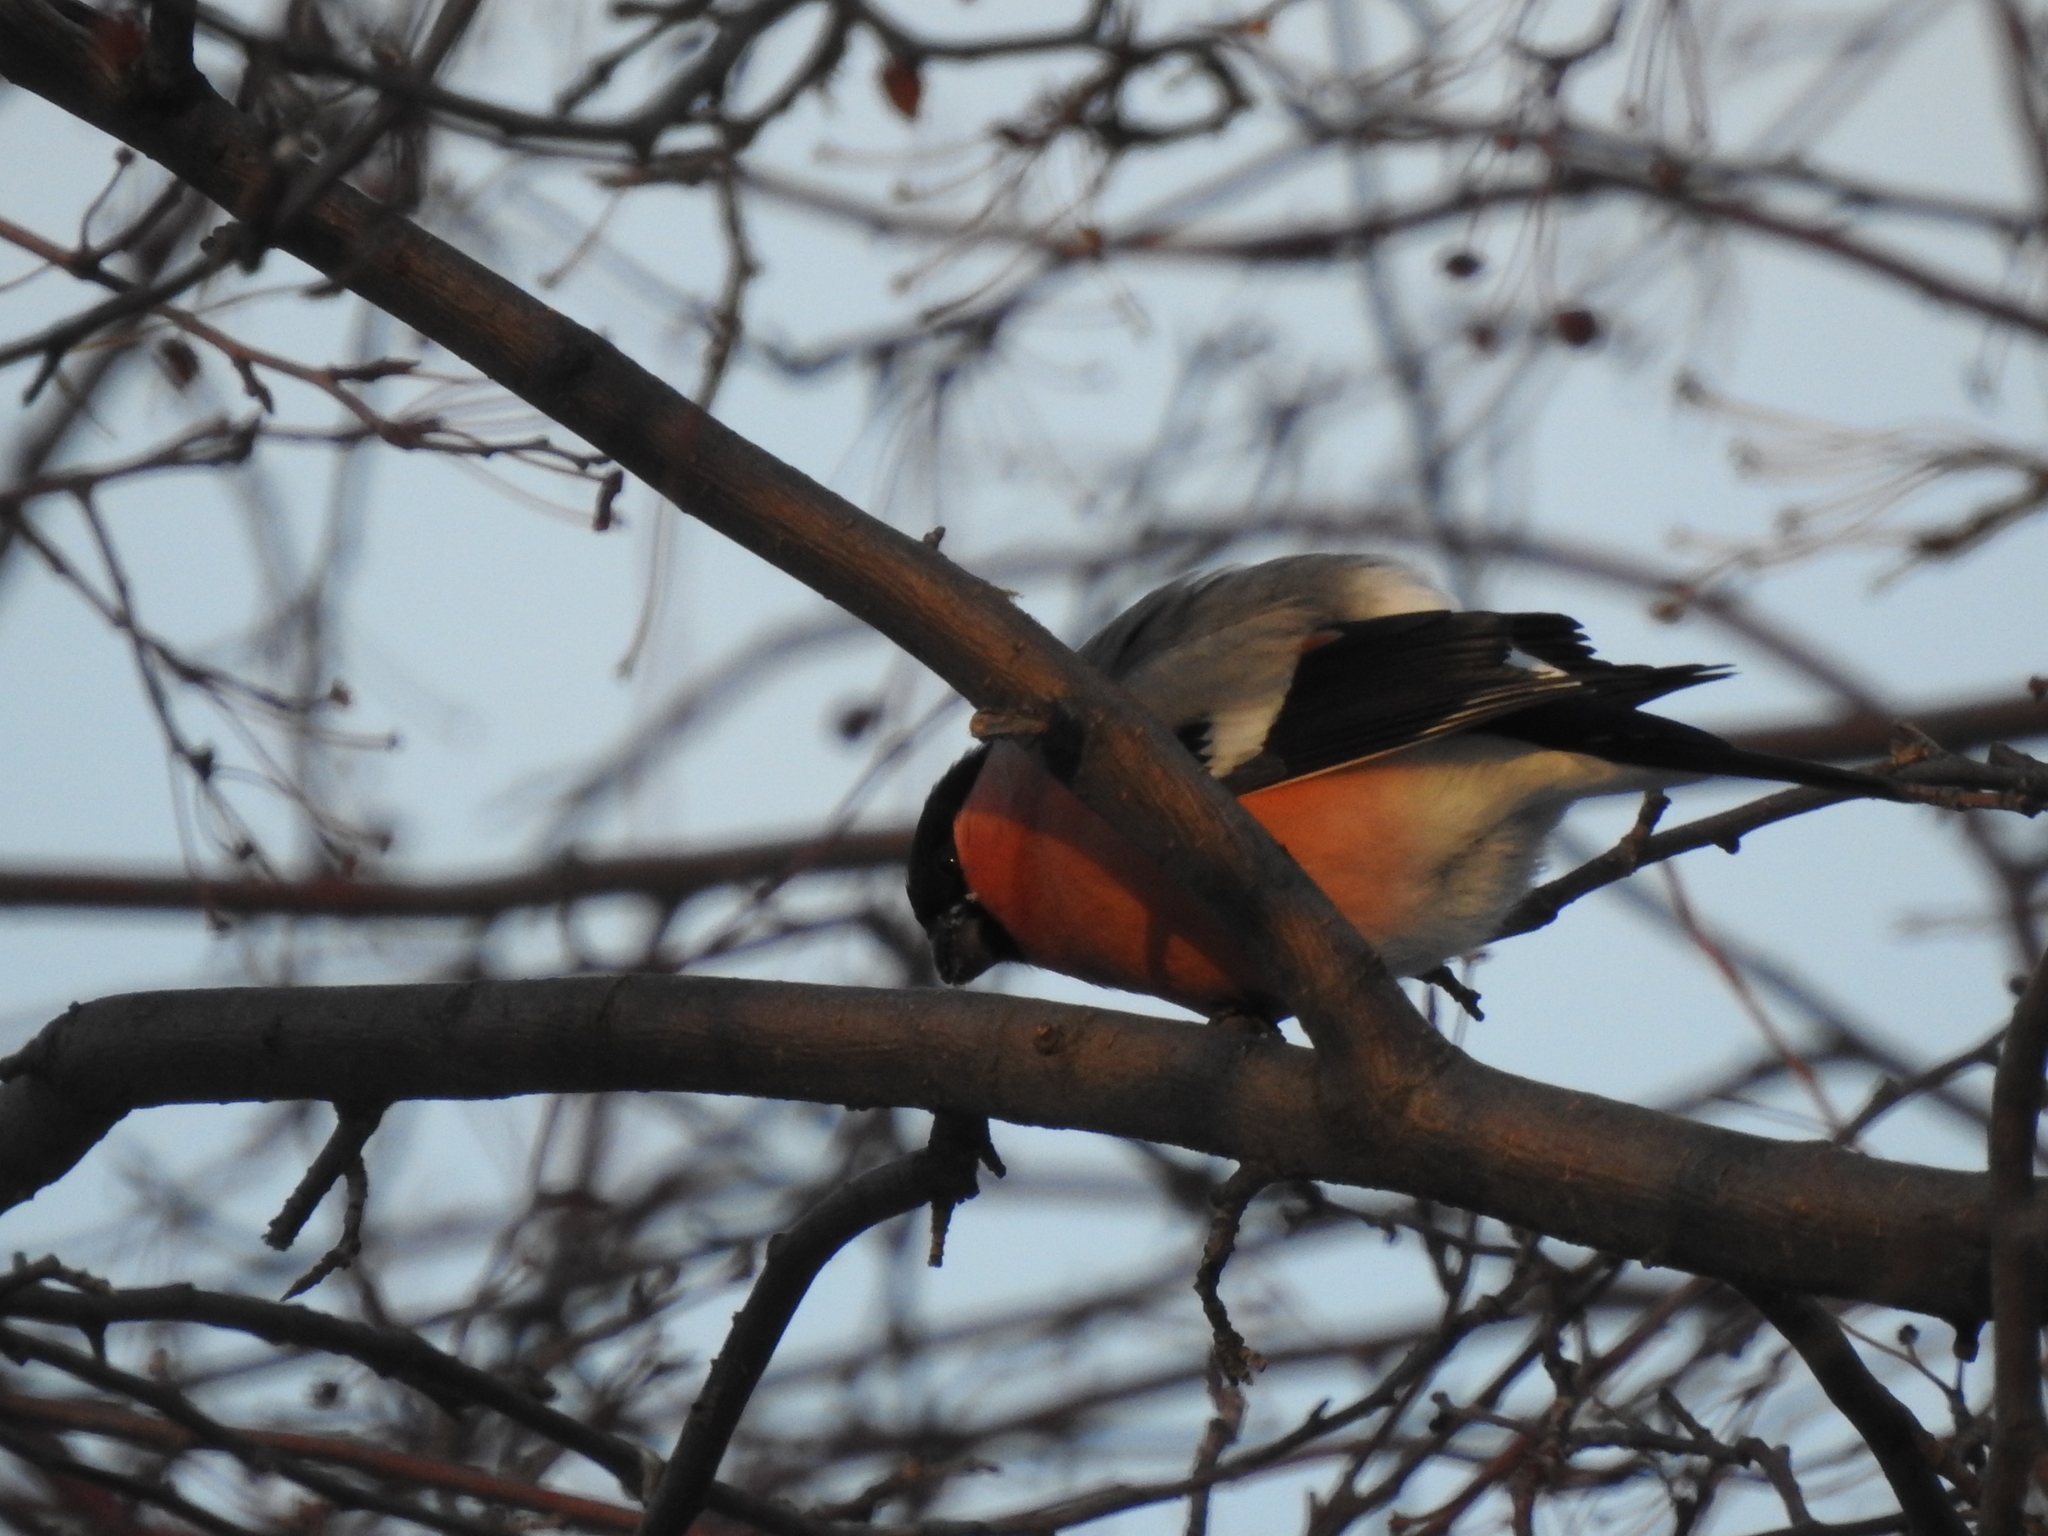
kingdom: Animalia
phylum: Chordata
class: Aves
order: Passeriformes
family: Fringillidae
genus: Pyrrhula
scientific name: Pyrrhula pyrrhula
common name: Eurasian bullfinch
